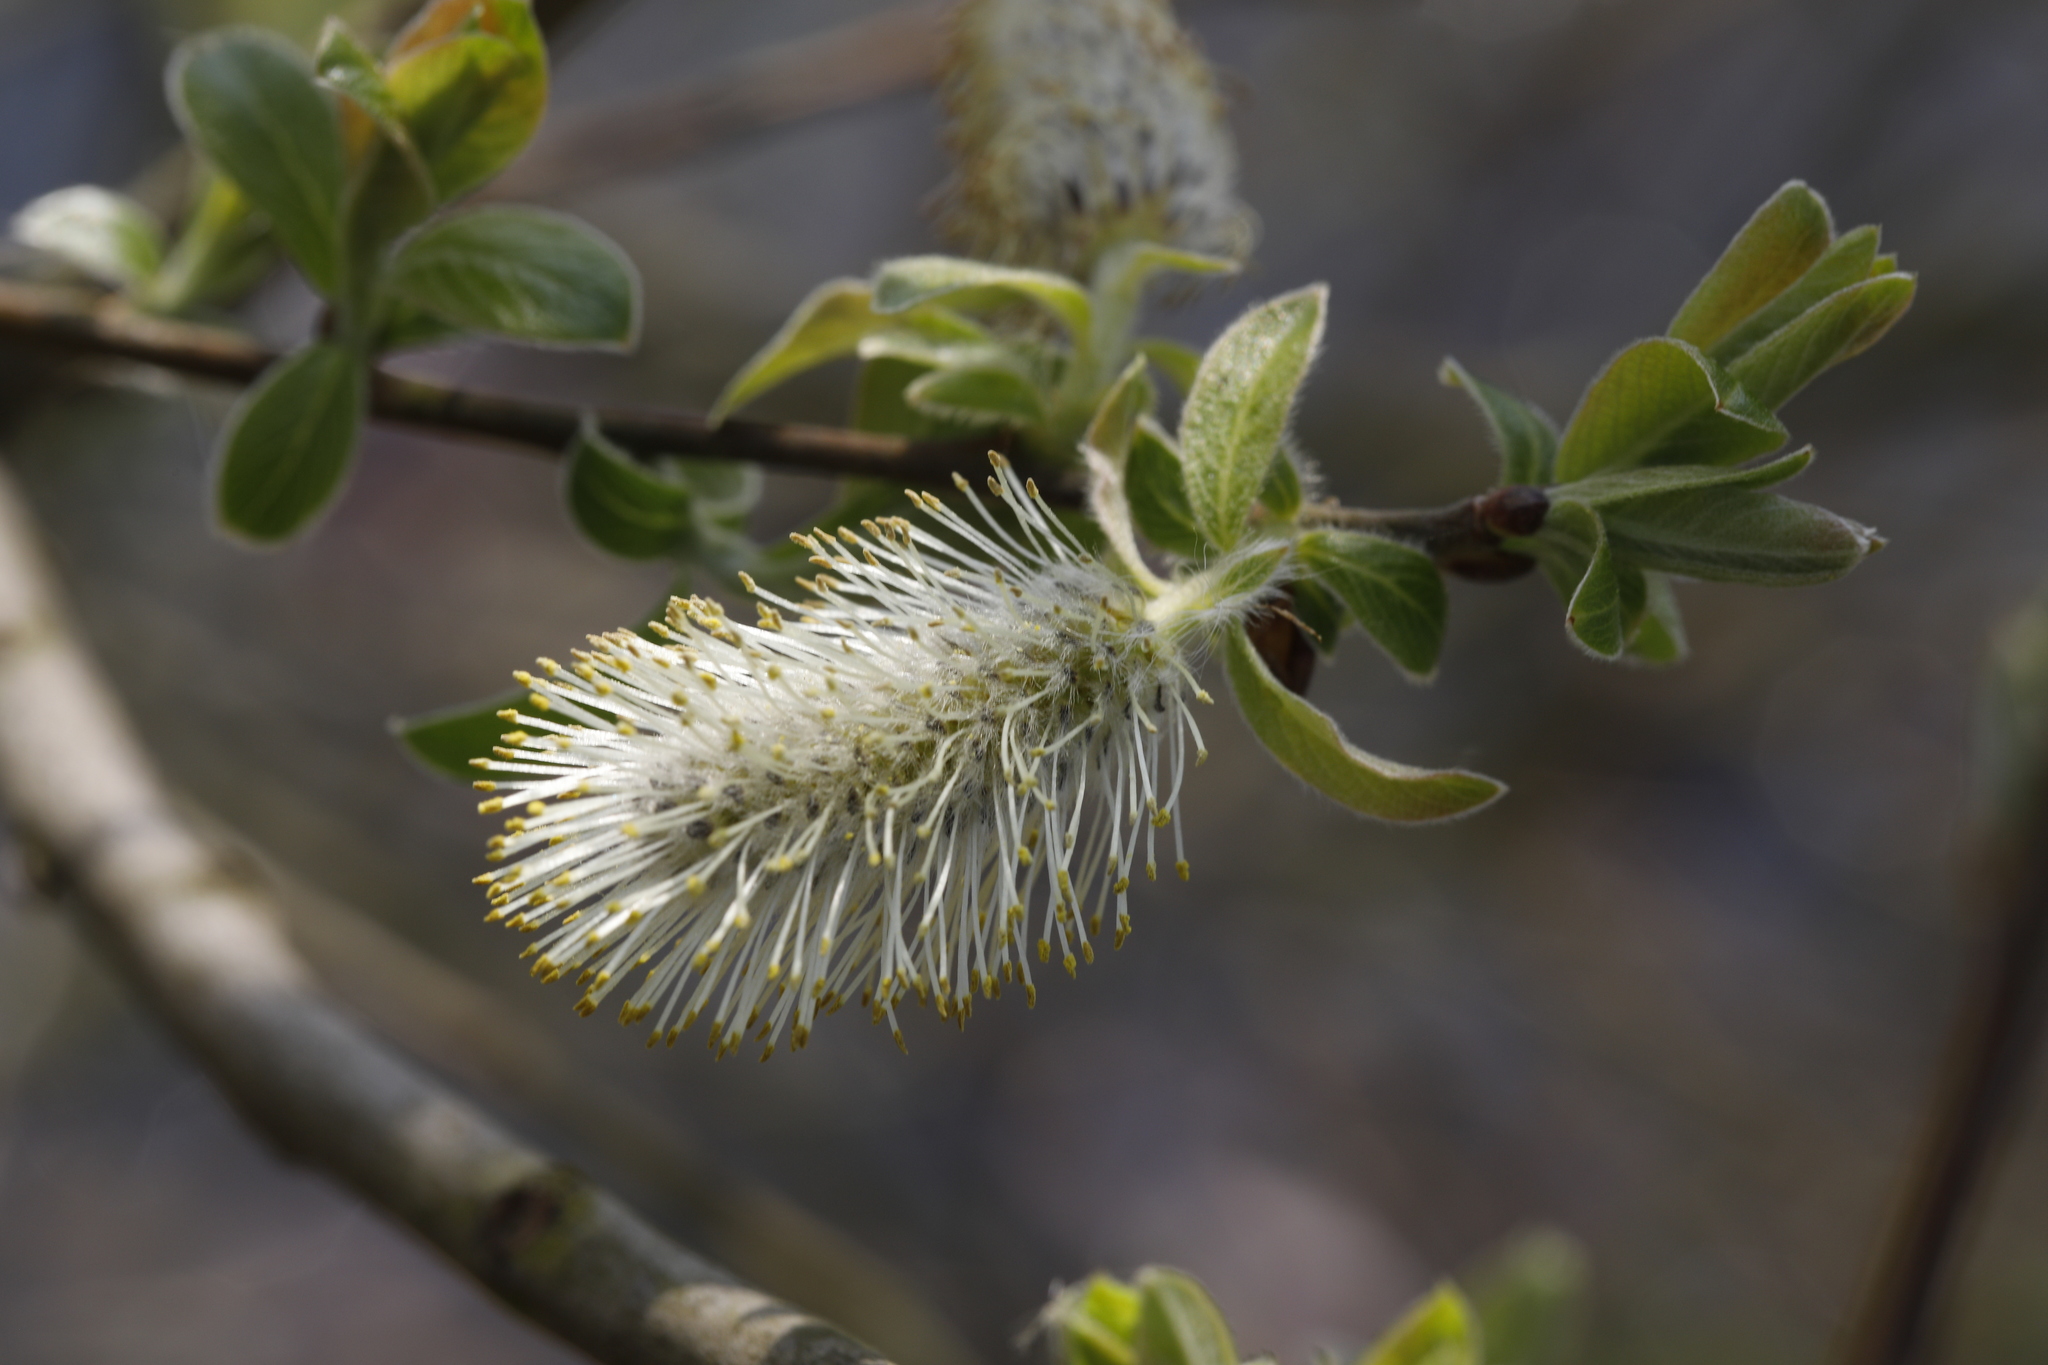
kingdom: Plantae
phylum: Tracheophyta
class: Magnoliopsida
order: Malpighiales
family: Salicaceae
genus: Salix
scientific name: Salix cinerea
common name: Common sallow
